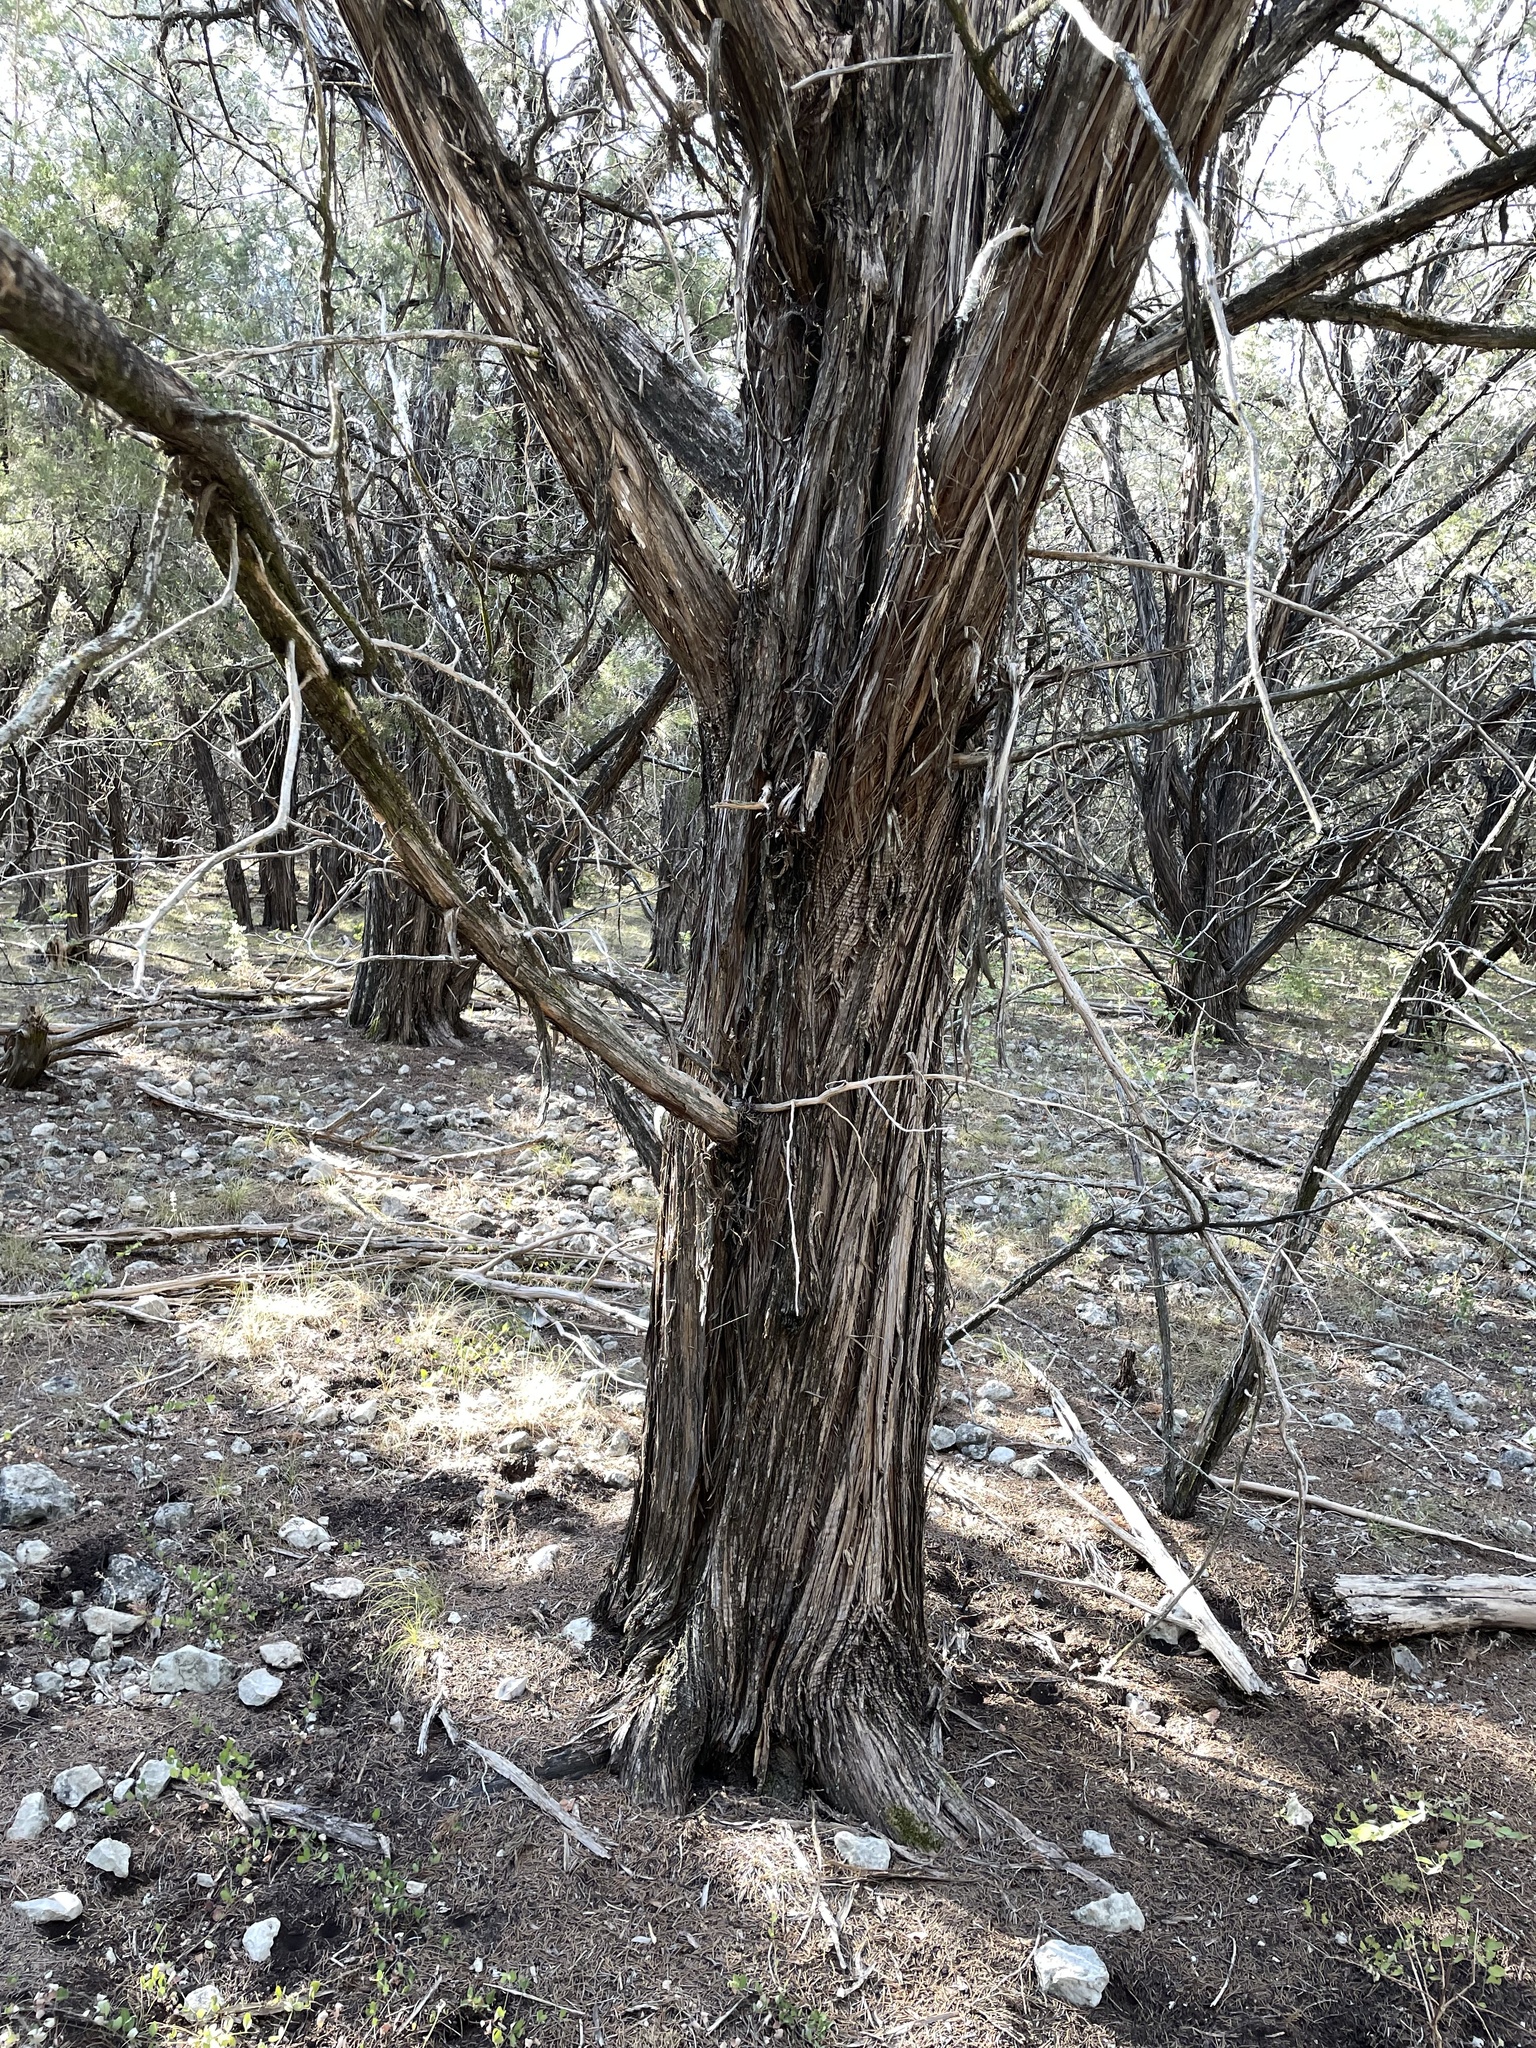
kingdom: Plantae
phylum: Tracheophyta
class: Pinopsida
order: Pinales
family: Cupressaceae
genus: Juniperus
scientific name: Juniperus ashei
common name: Mexican juniper
